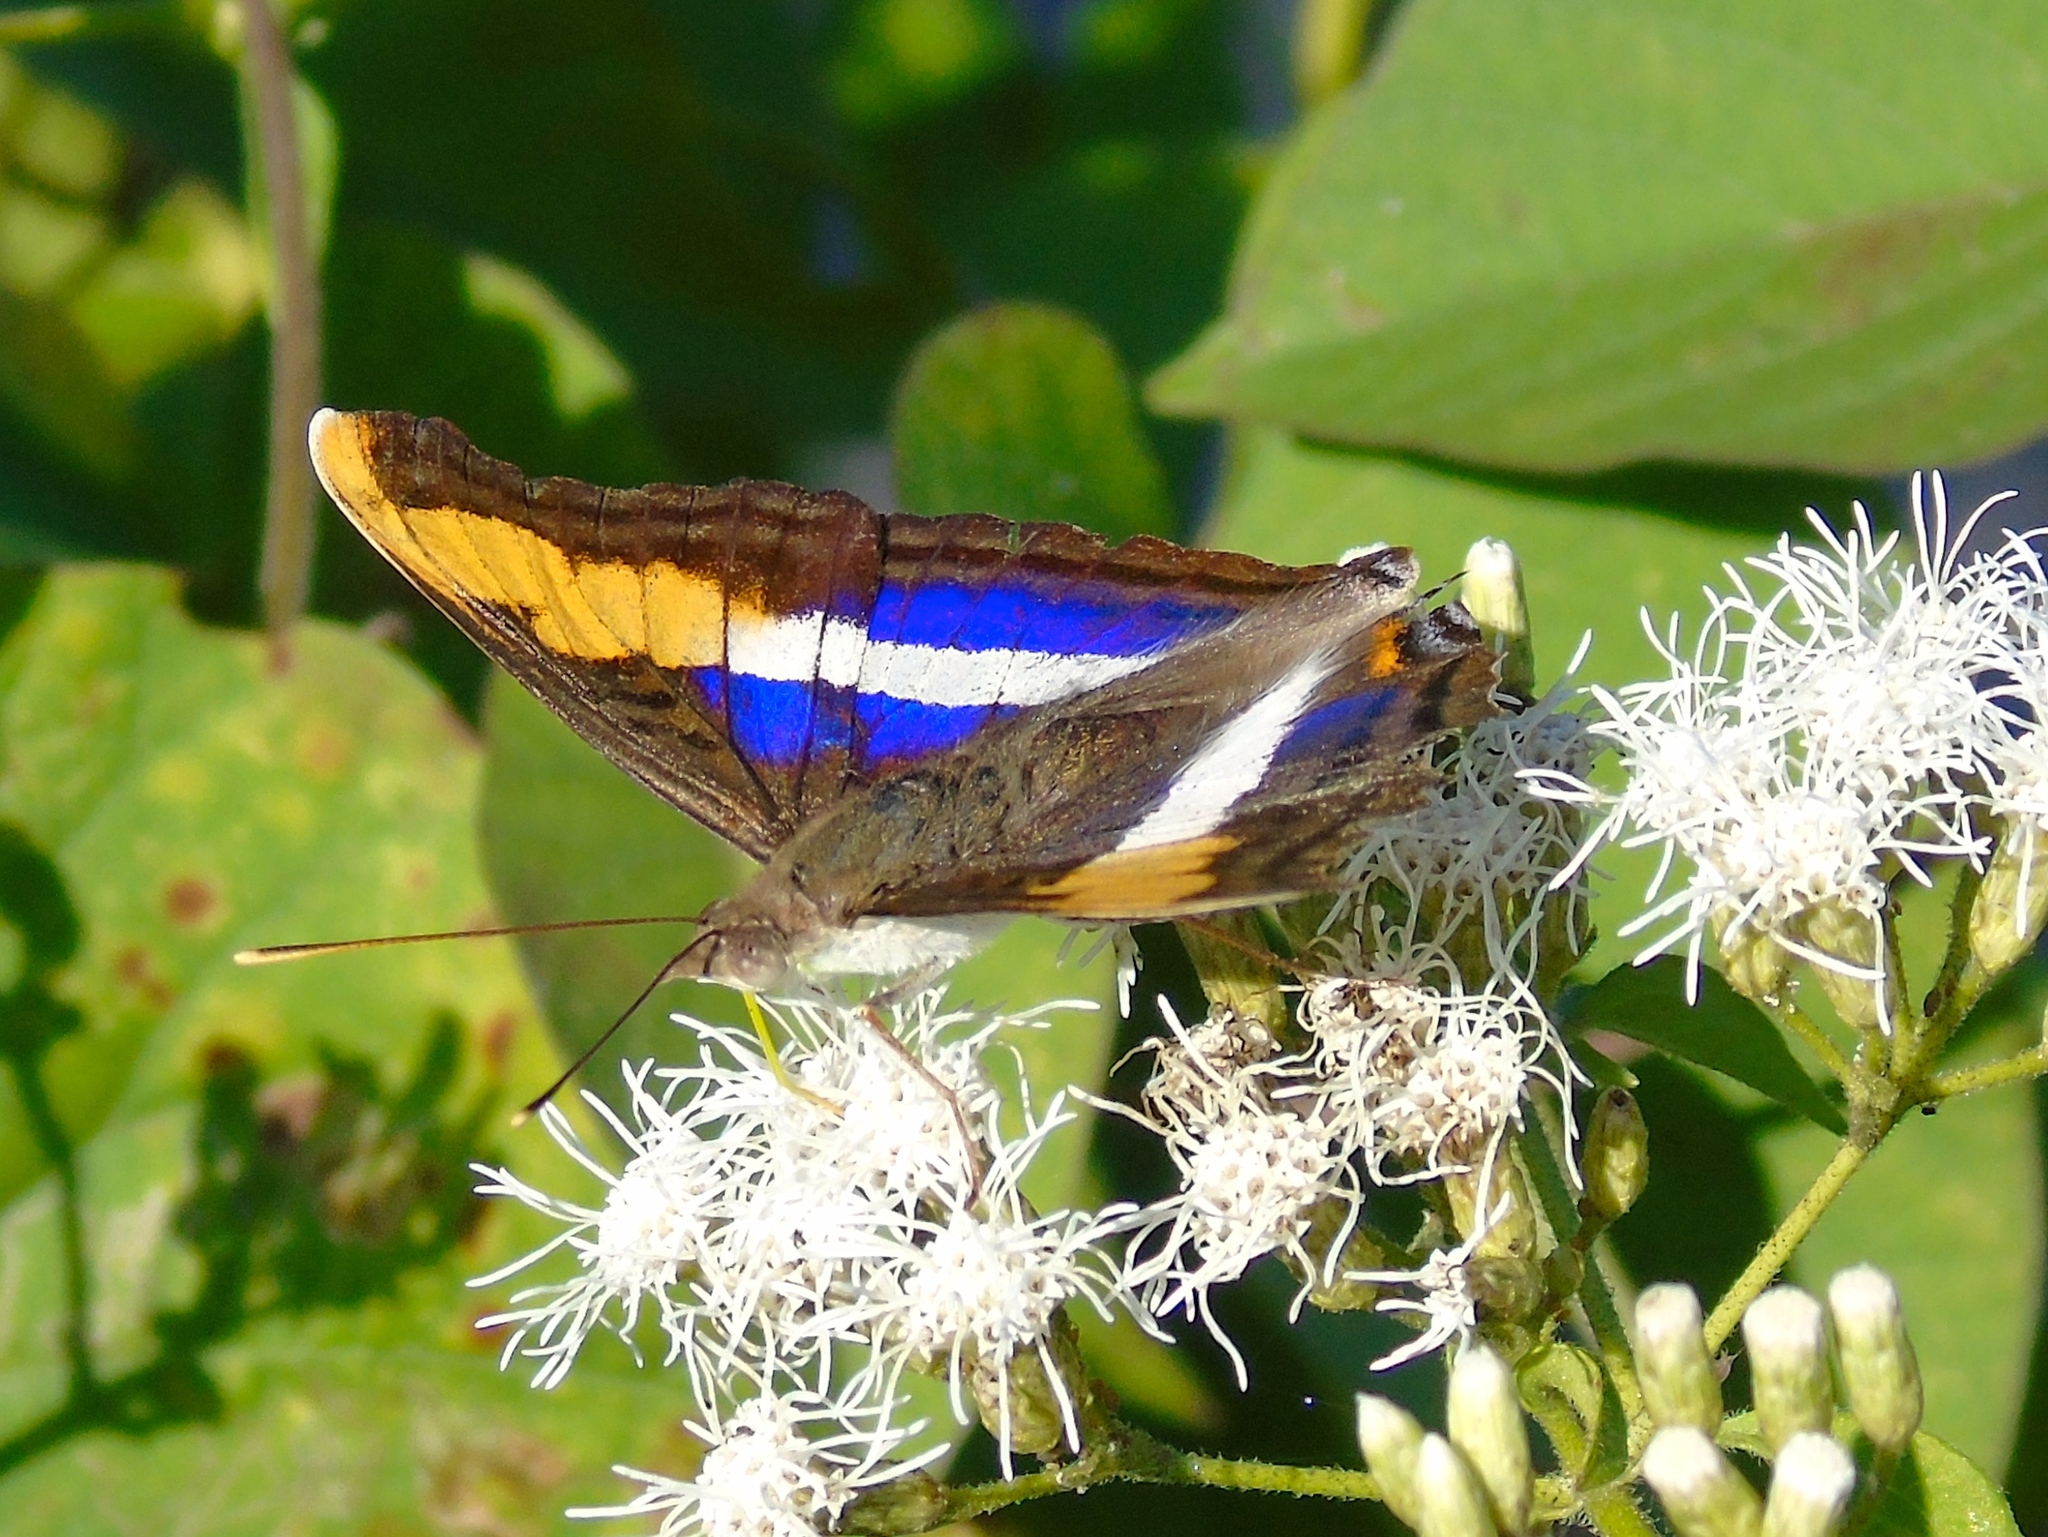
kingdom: Animalia
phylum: Arthropoda
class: Insecta
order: Lepidoptera
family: Nymphalidae
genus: Doxocopa
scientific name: Doxocopa laure
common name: Silver emperor
